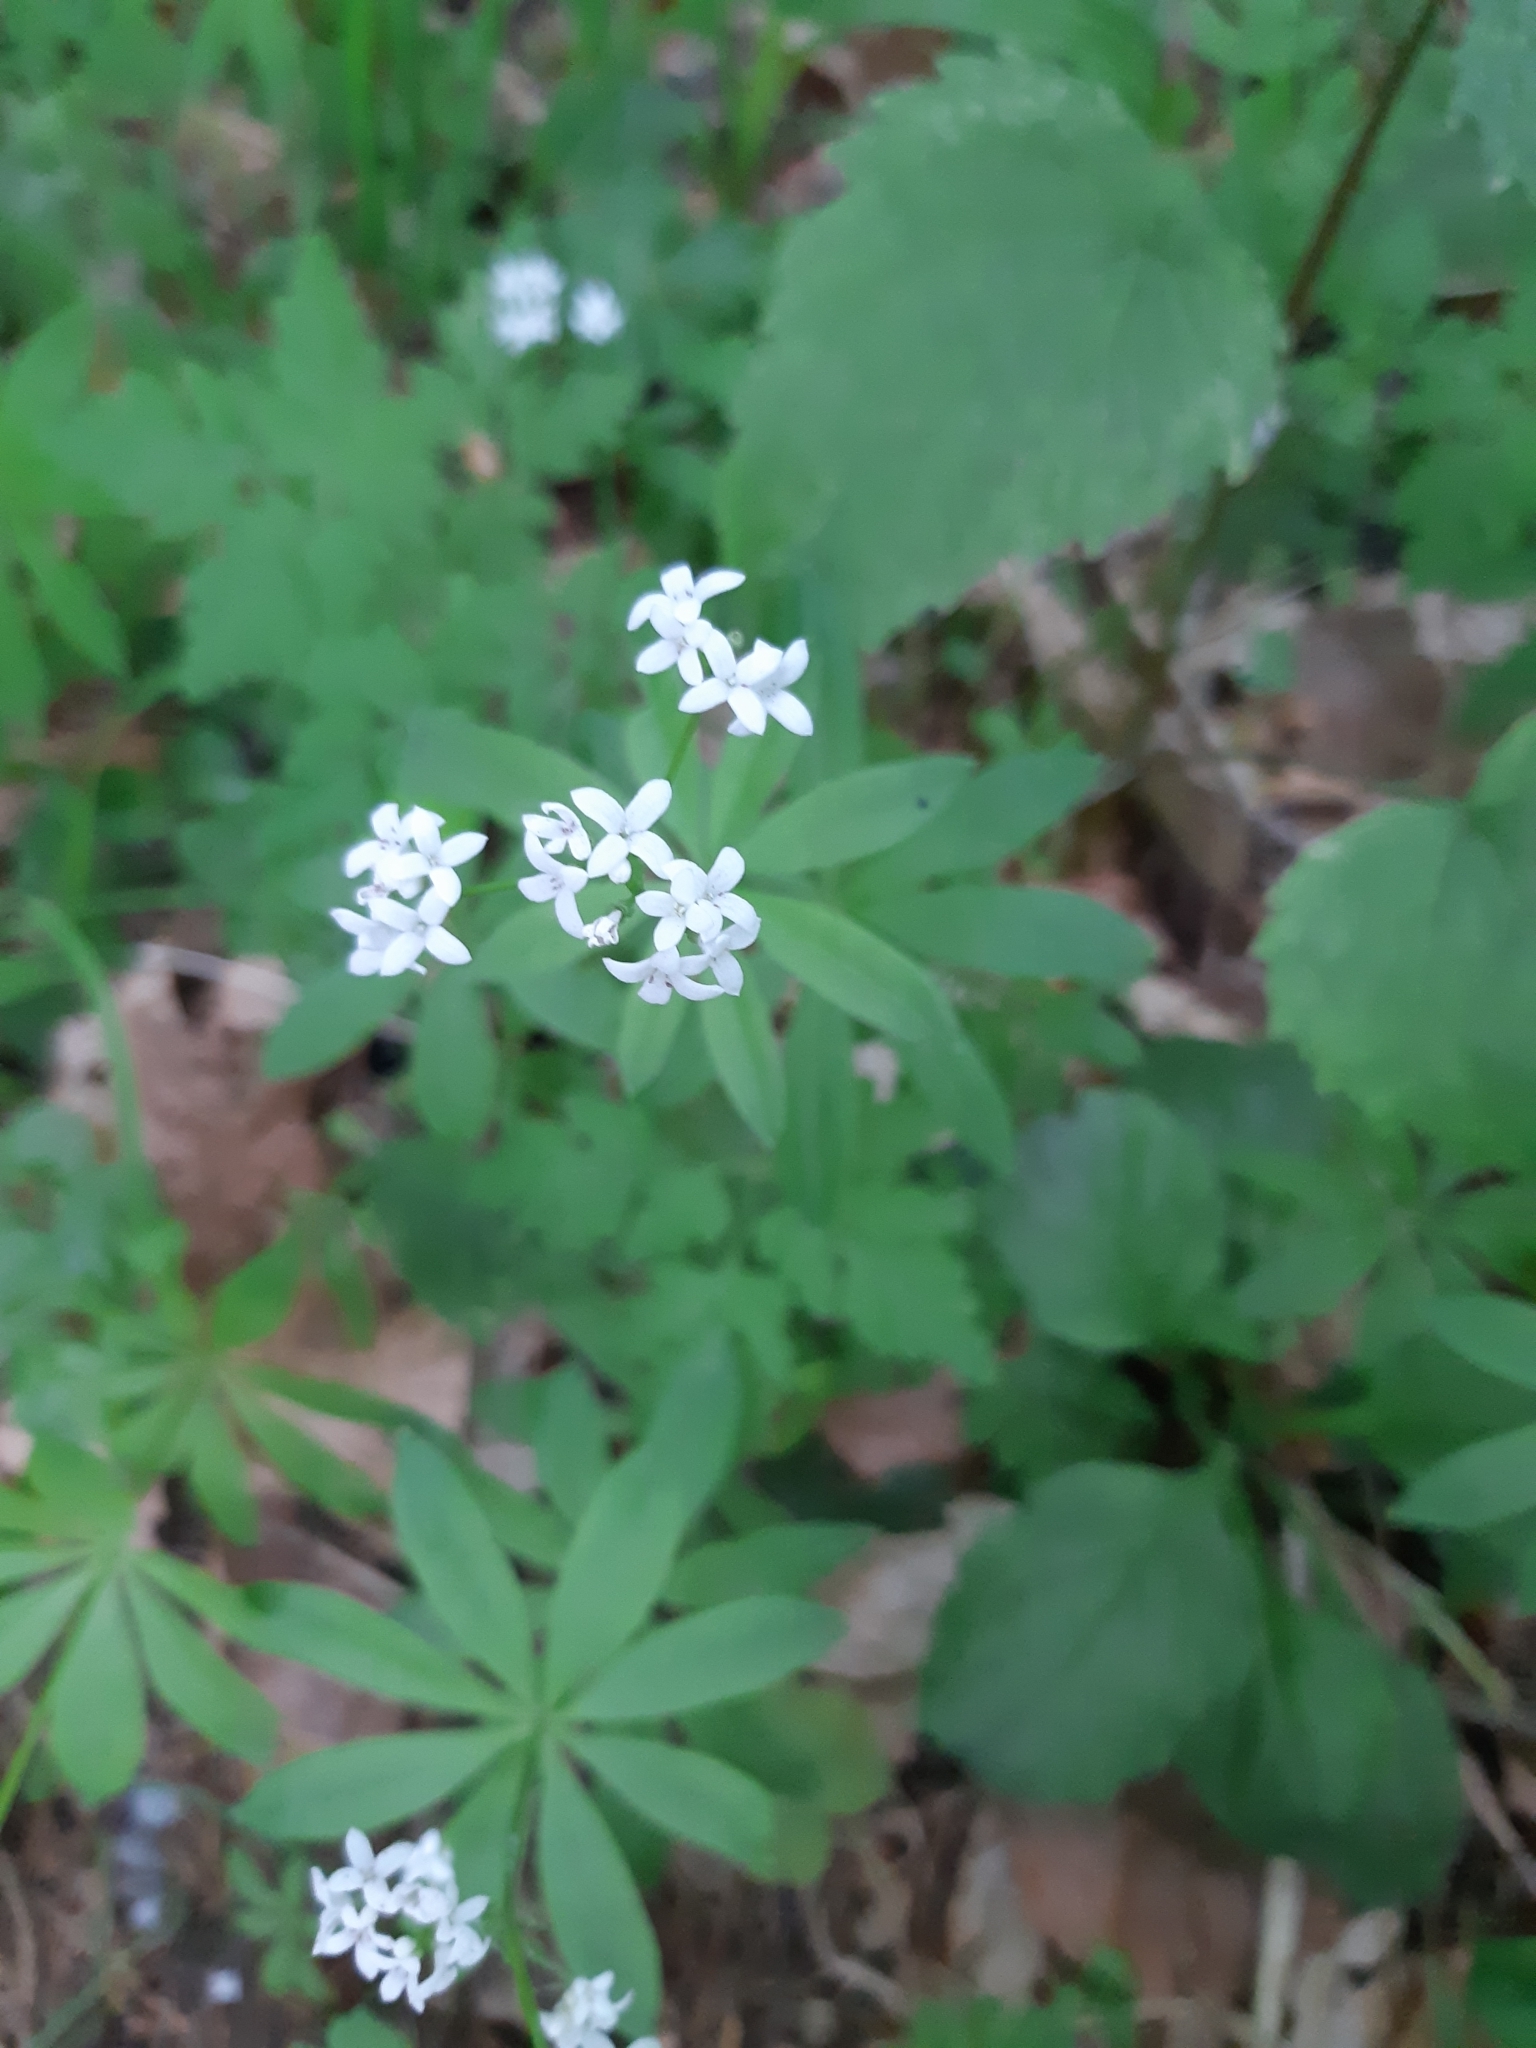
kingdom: Plantae
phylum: Tracheophyta
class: Magnoliopsida
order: Gentianales
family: Rubiaceae
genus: Galium
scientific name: Galium odoratum
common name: Sweet woodruff
